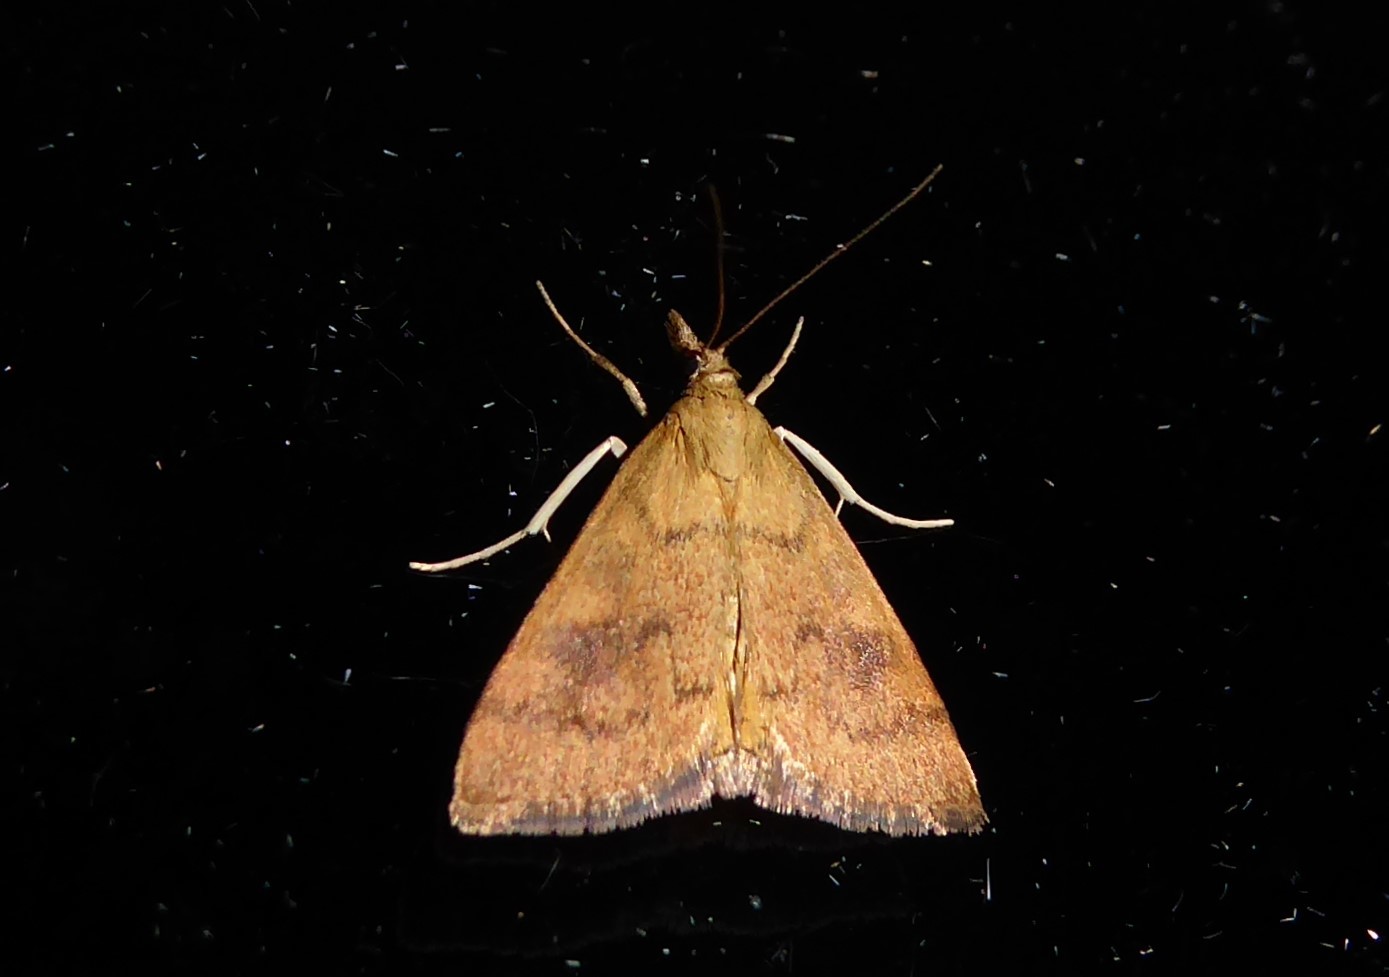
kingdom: Animalia
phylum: Arthropoda
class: Insecta
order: Lepidoptera
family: Crambidae
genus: Udea
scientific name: Udea Mnesictena flavidalis
